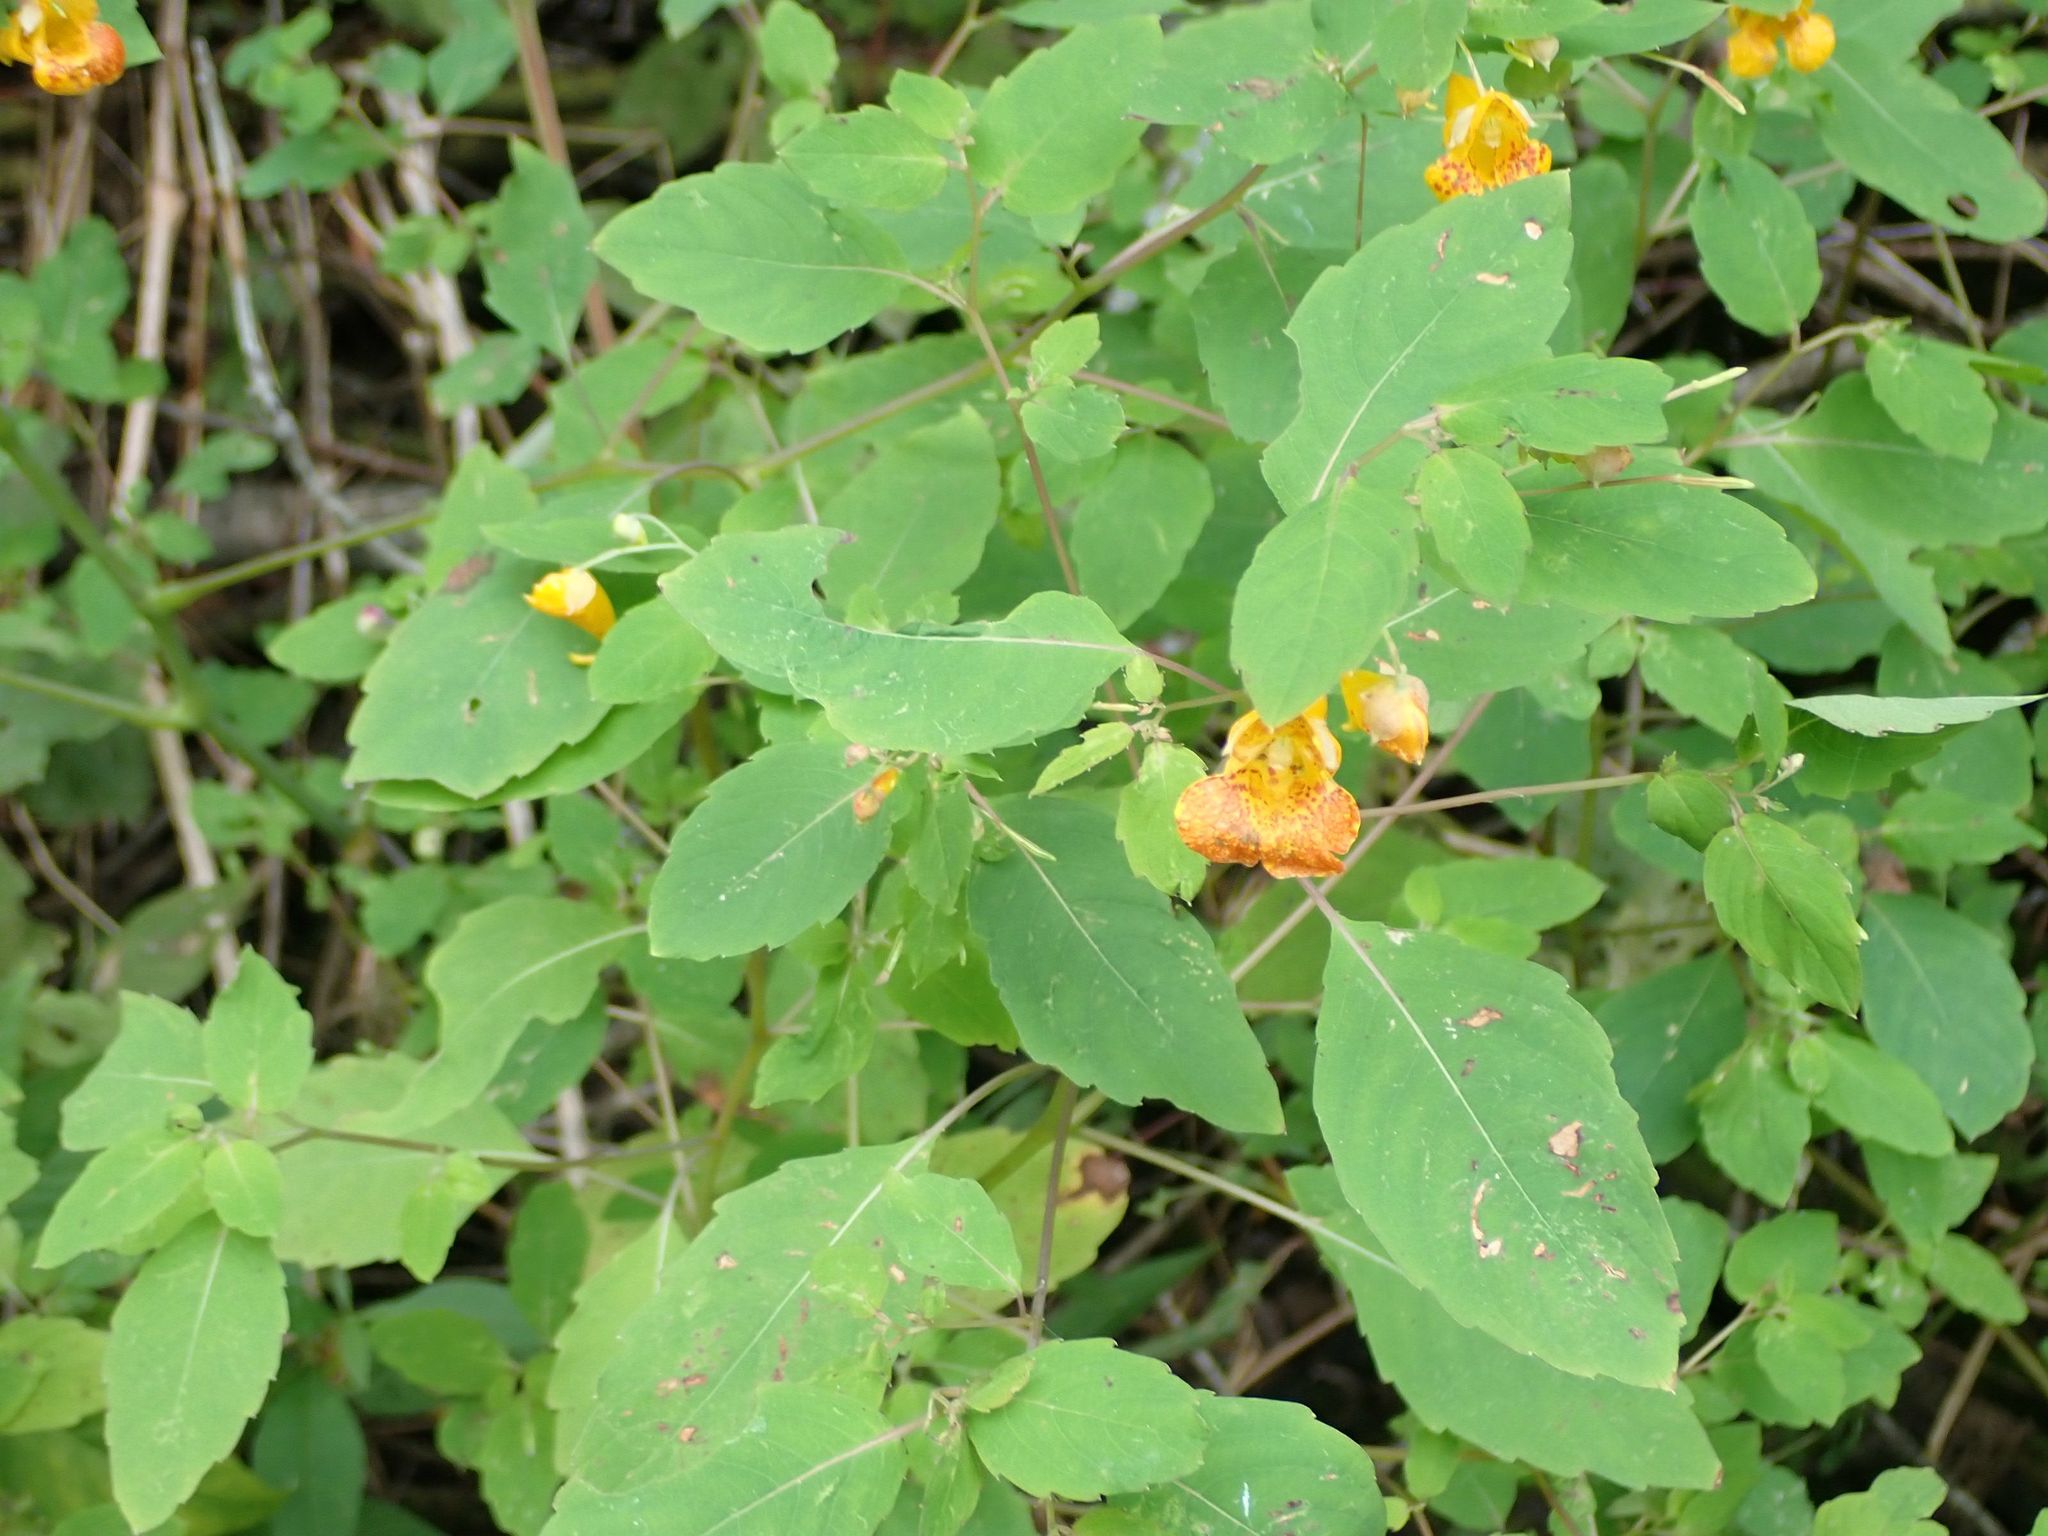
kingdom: Plantae
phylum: Tracheophyta
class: Magnoliopsida
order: Ericales
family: Balsaminaceae
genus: Impatiens
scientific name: Impatiens capensis
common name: Orange balsam
